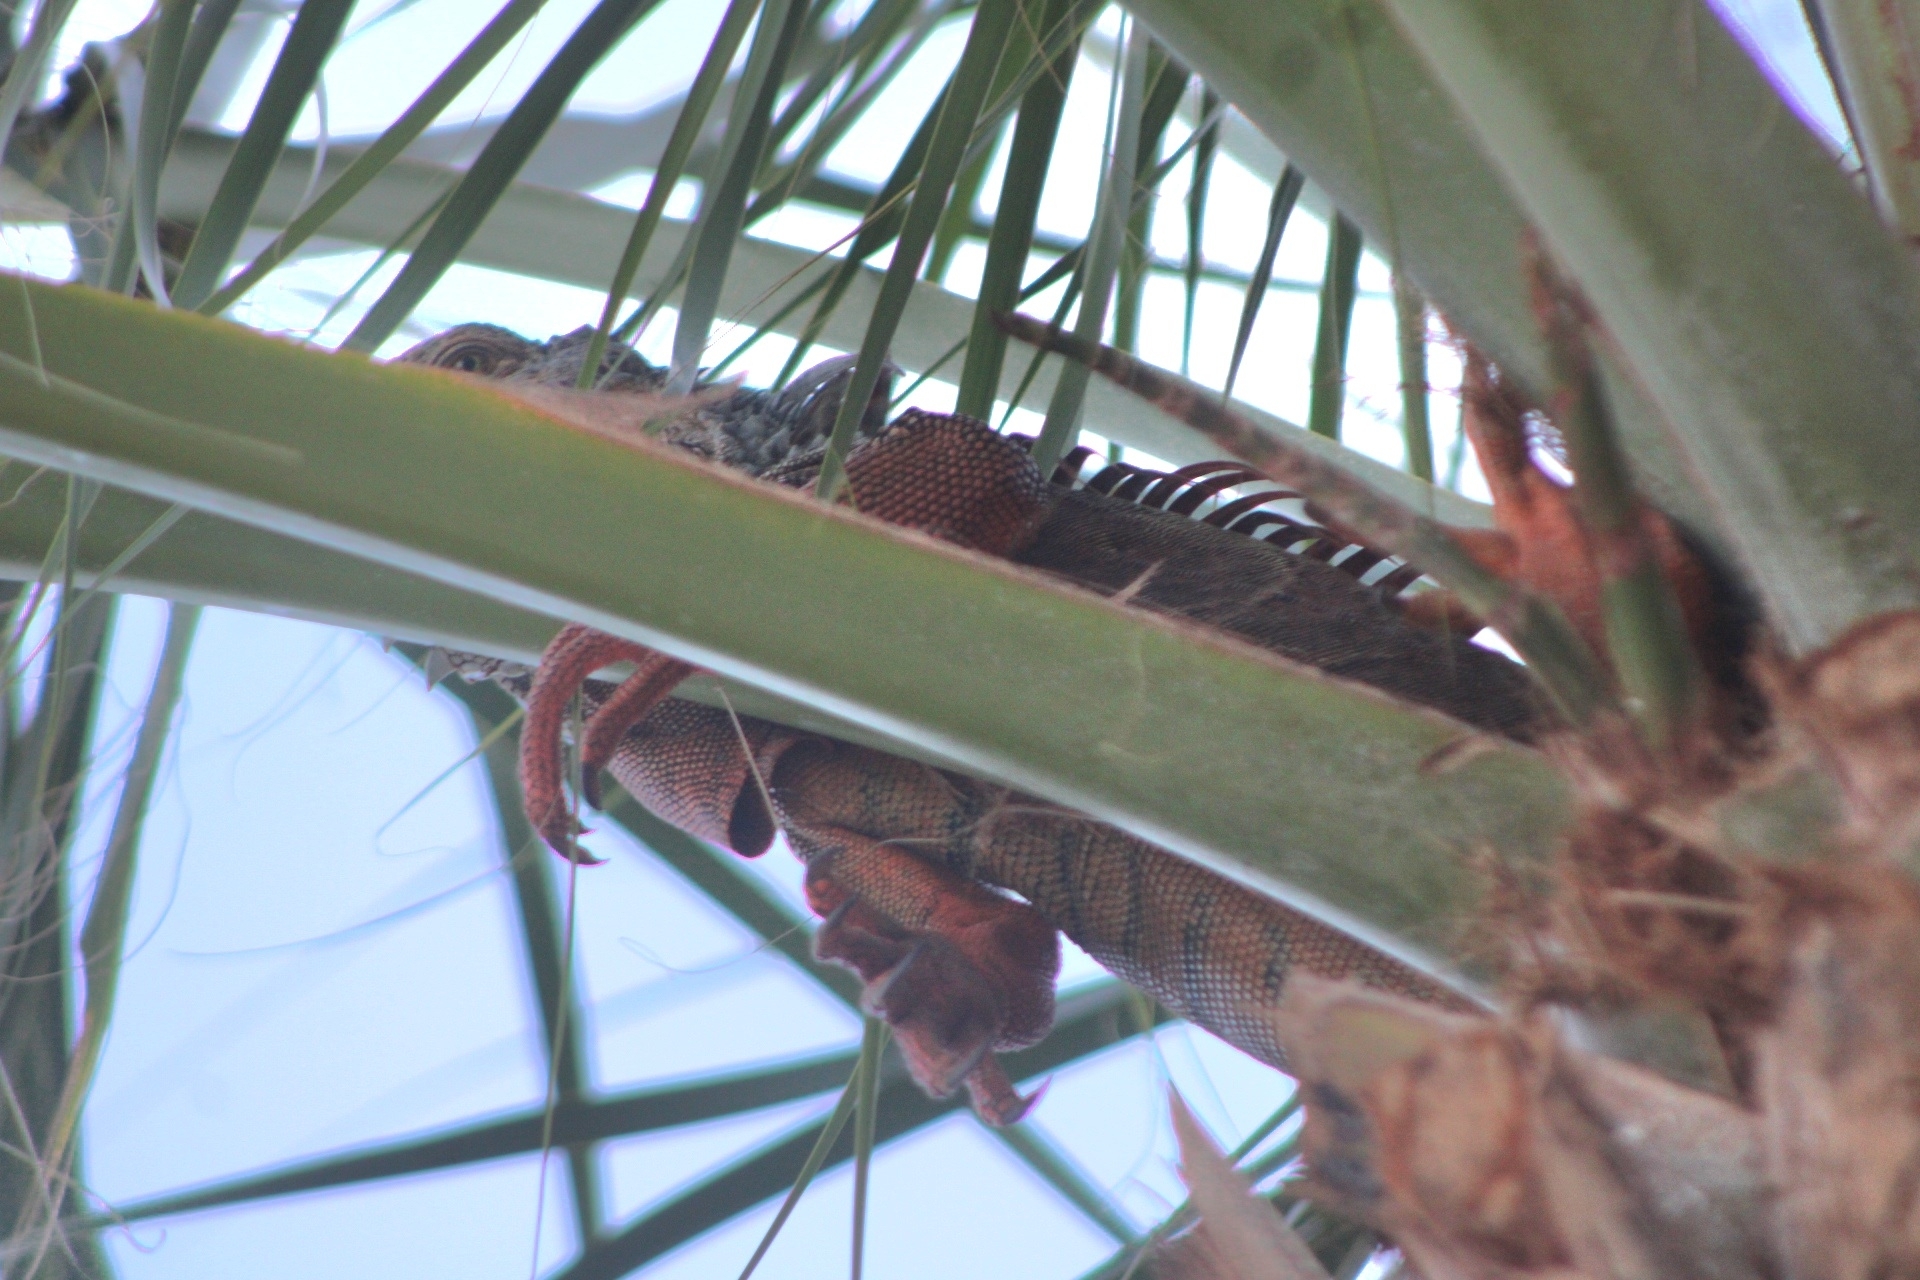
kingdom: Animalia
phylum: Chordata
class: Squamata
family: Iguanidae
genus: Iguana
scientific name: Iguana iguana
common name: Green iguana
